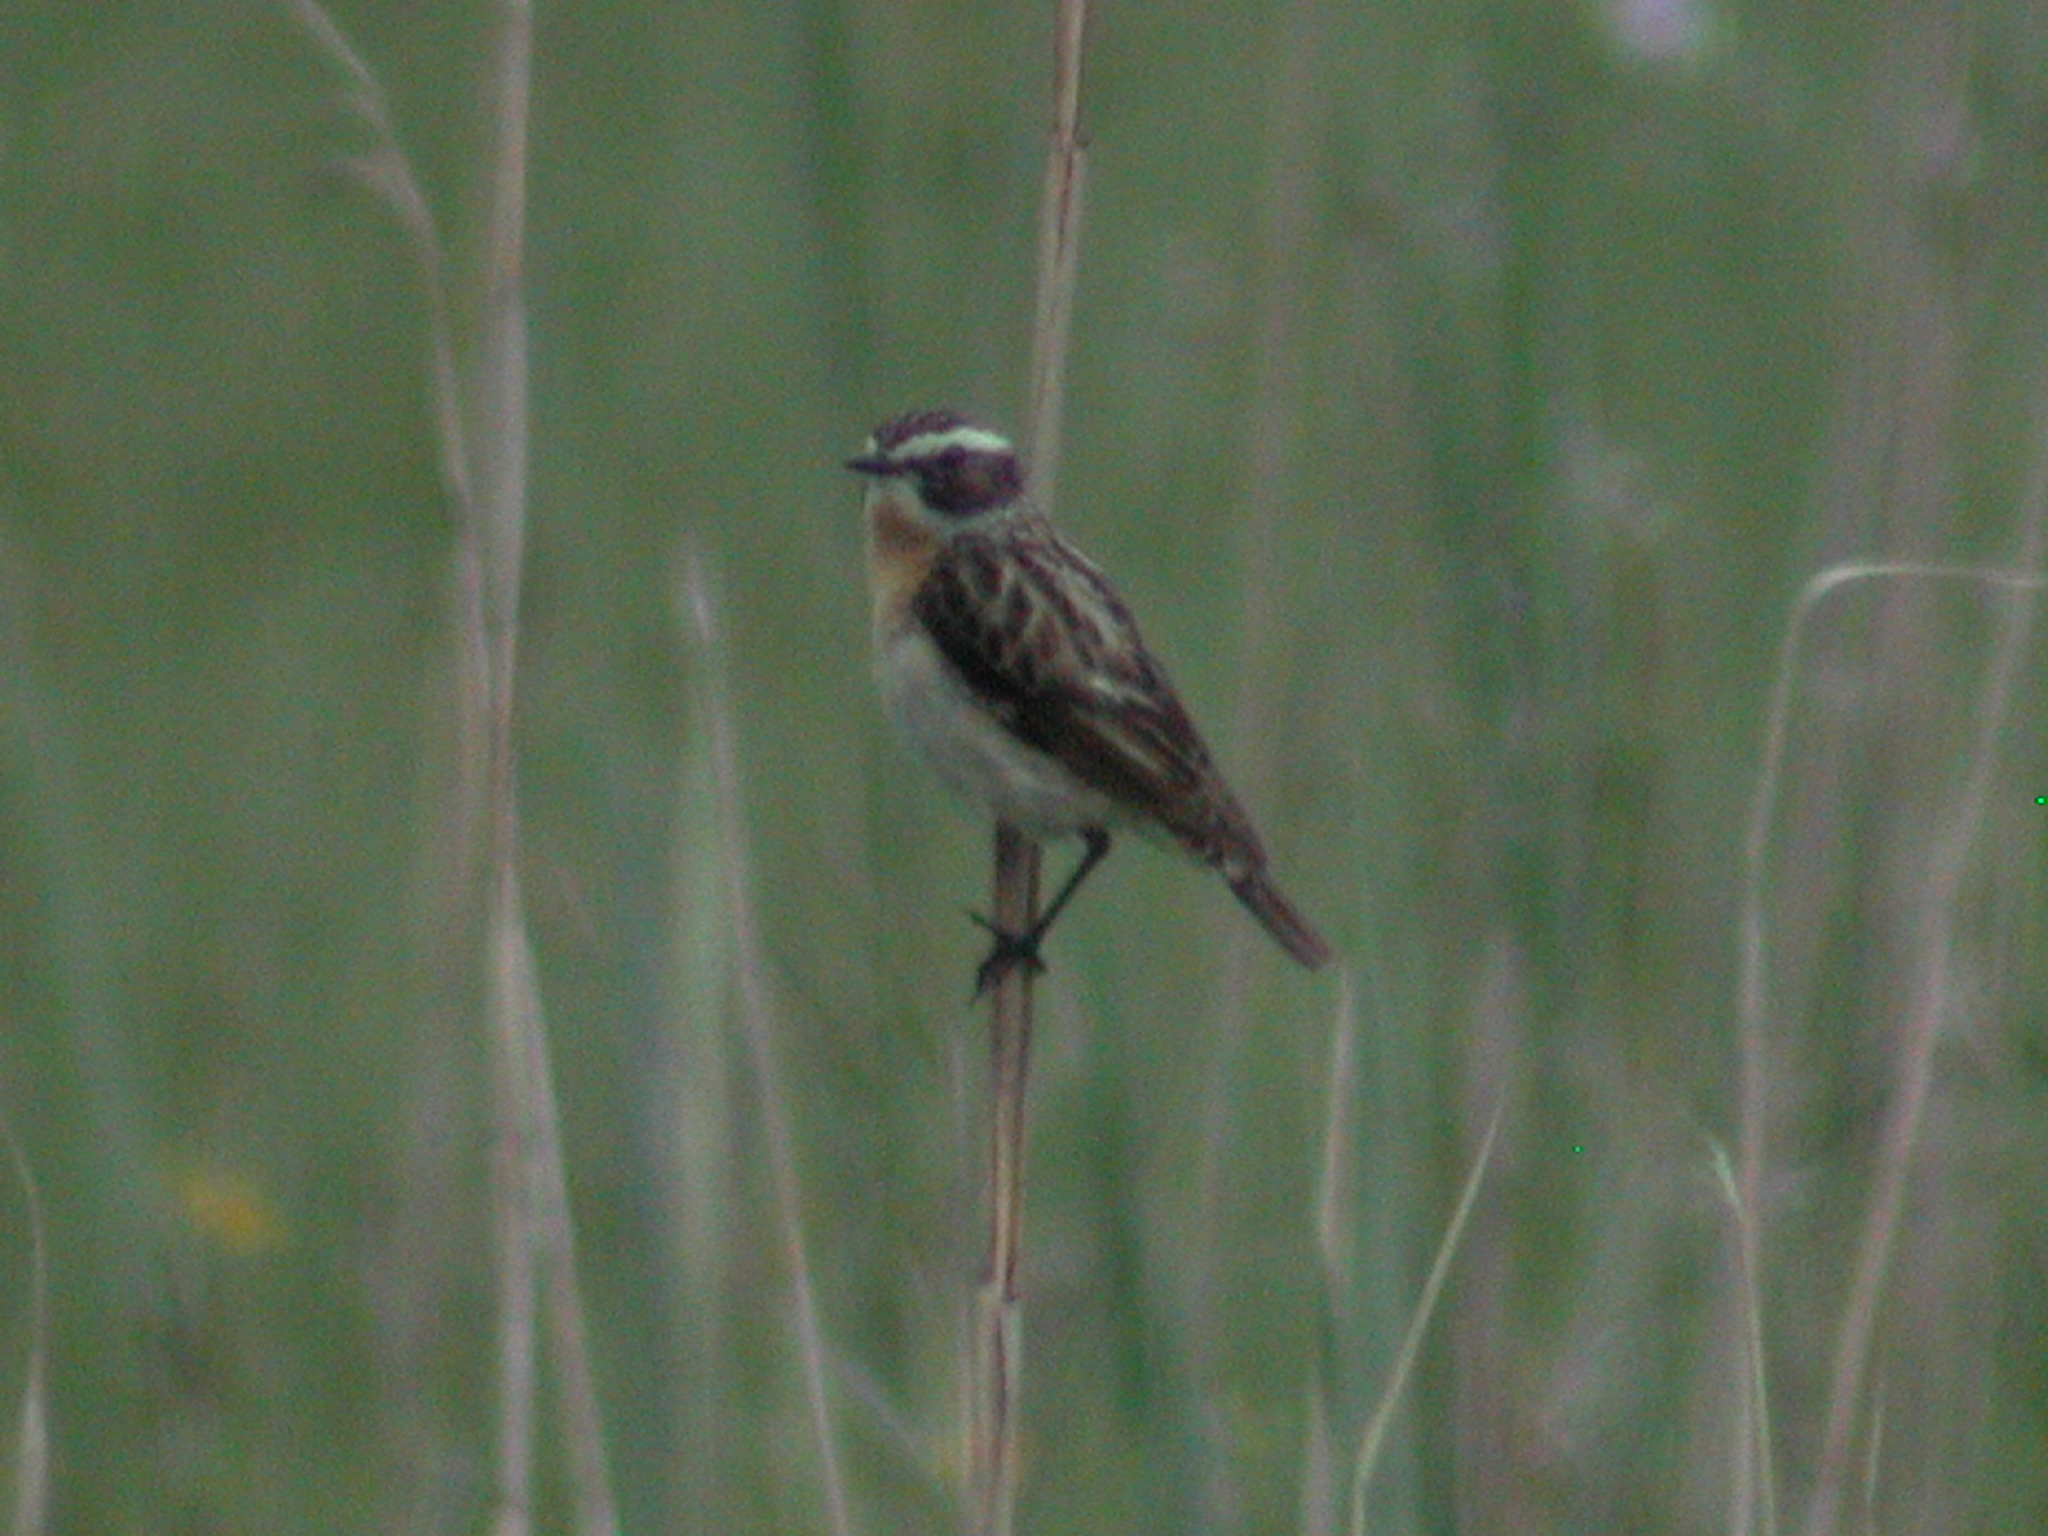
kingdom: Animalia
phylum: Chordata
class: Aves
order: Passeriformes
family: Muscicapidae
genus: Saxicola
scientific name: Saxicola rubetra
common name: Whinchat
